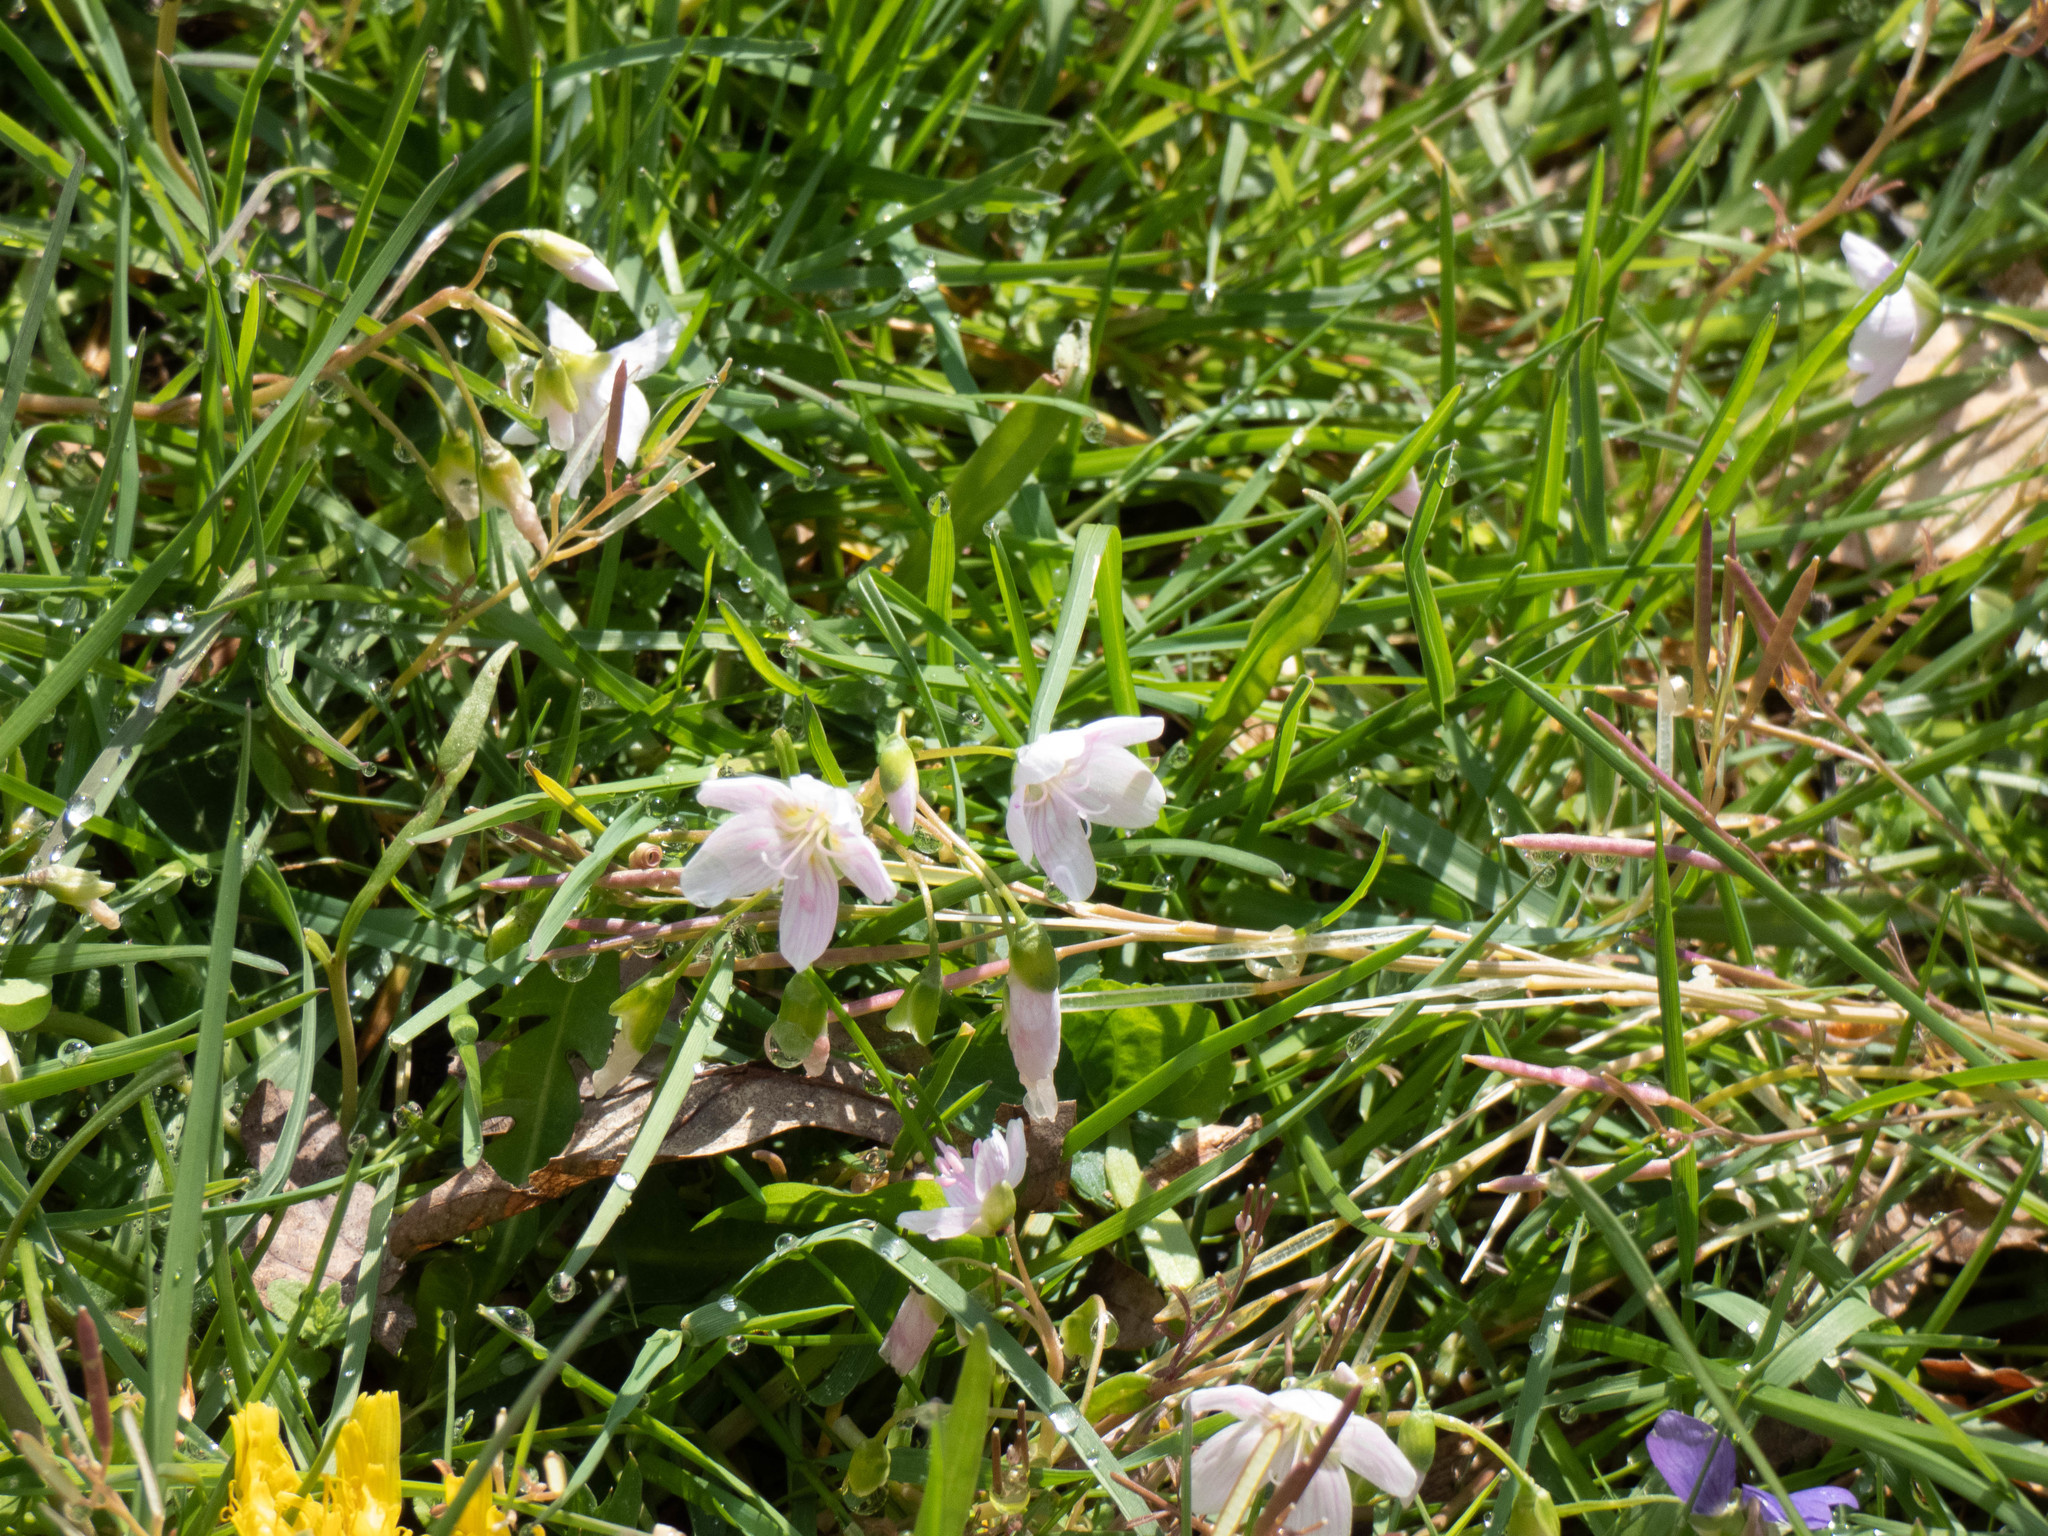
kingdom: Plantae
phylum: Tracheophyta
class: Magnoliopsida
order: Caryophyllales
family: Montiaceae
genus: Claytonia
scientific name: Claytonia virginica
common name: Virginia springbeauty
